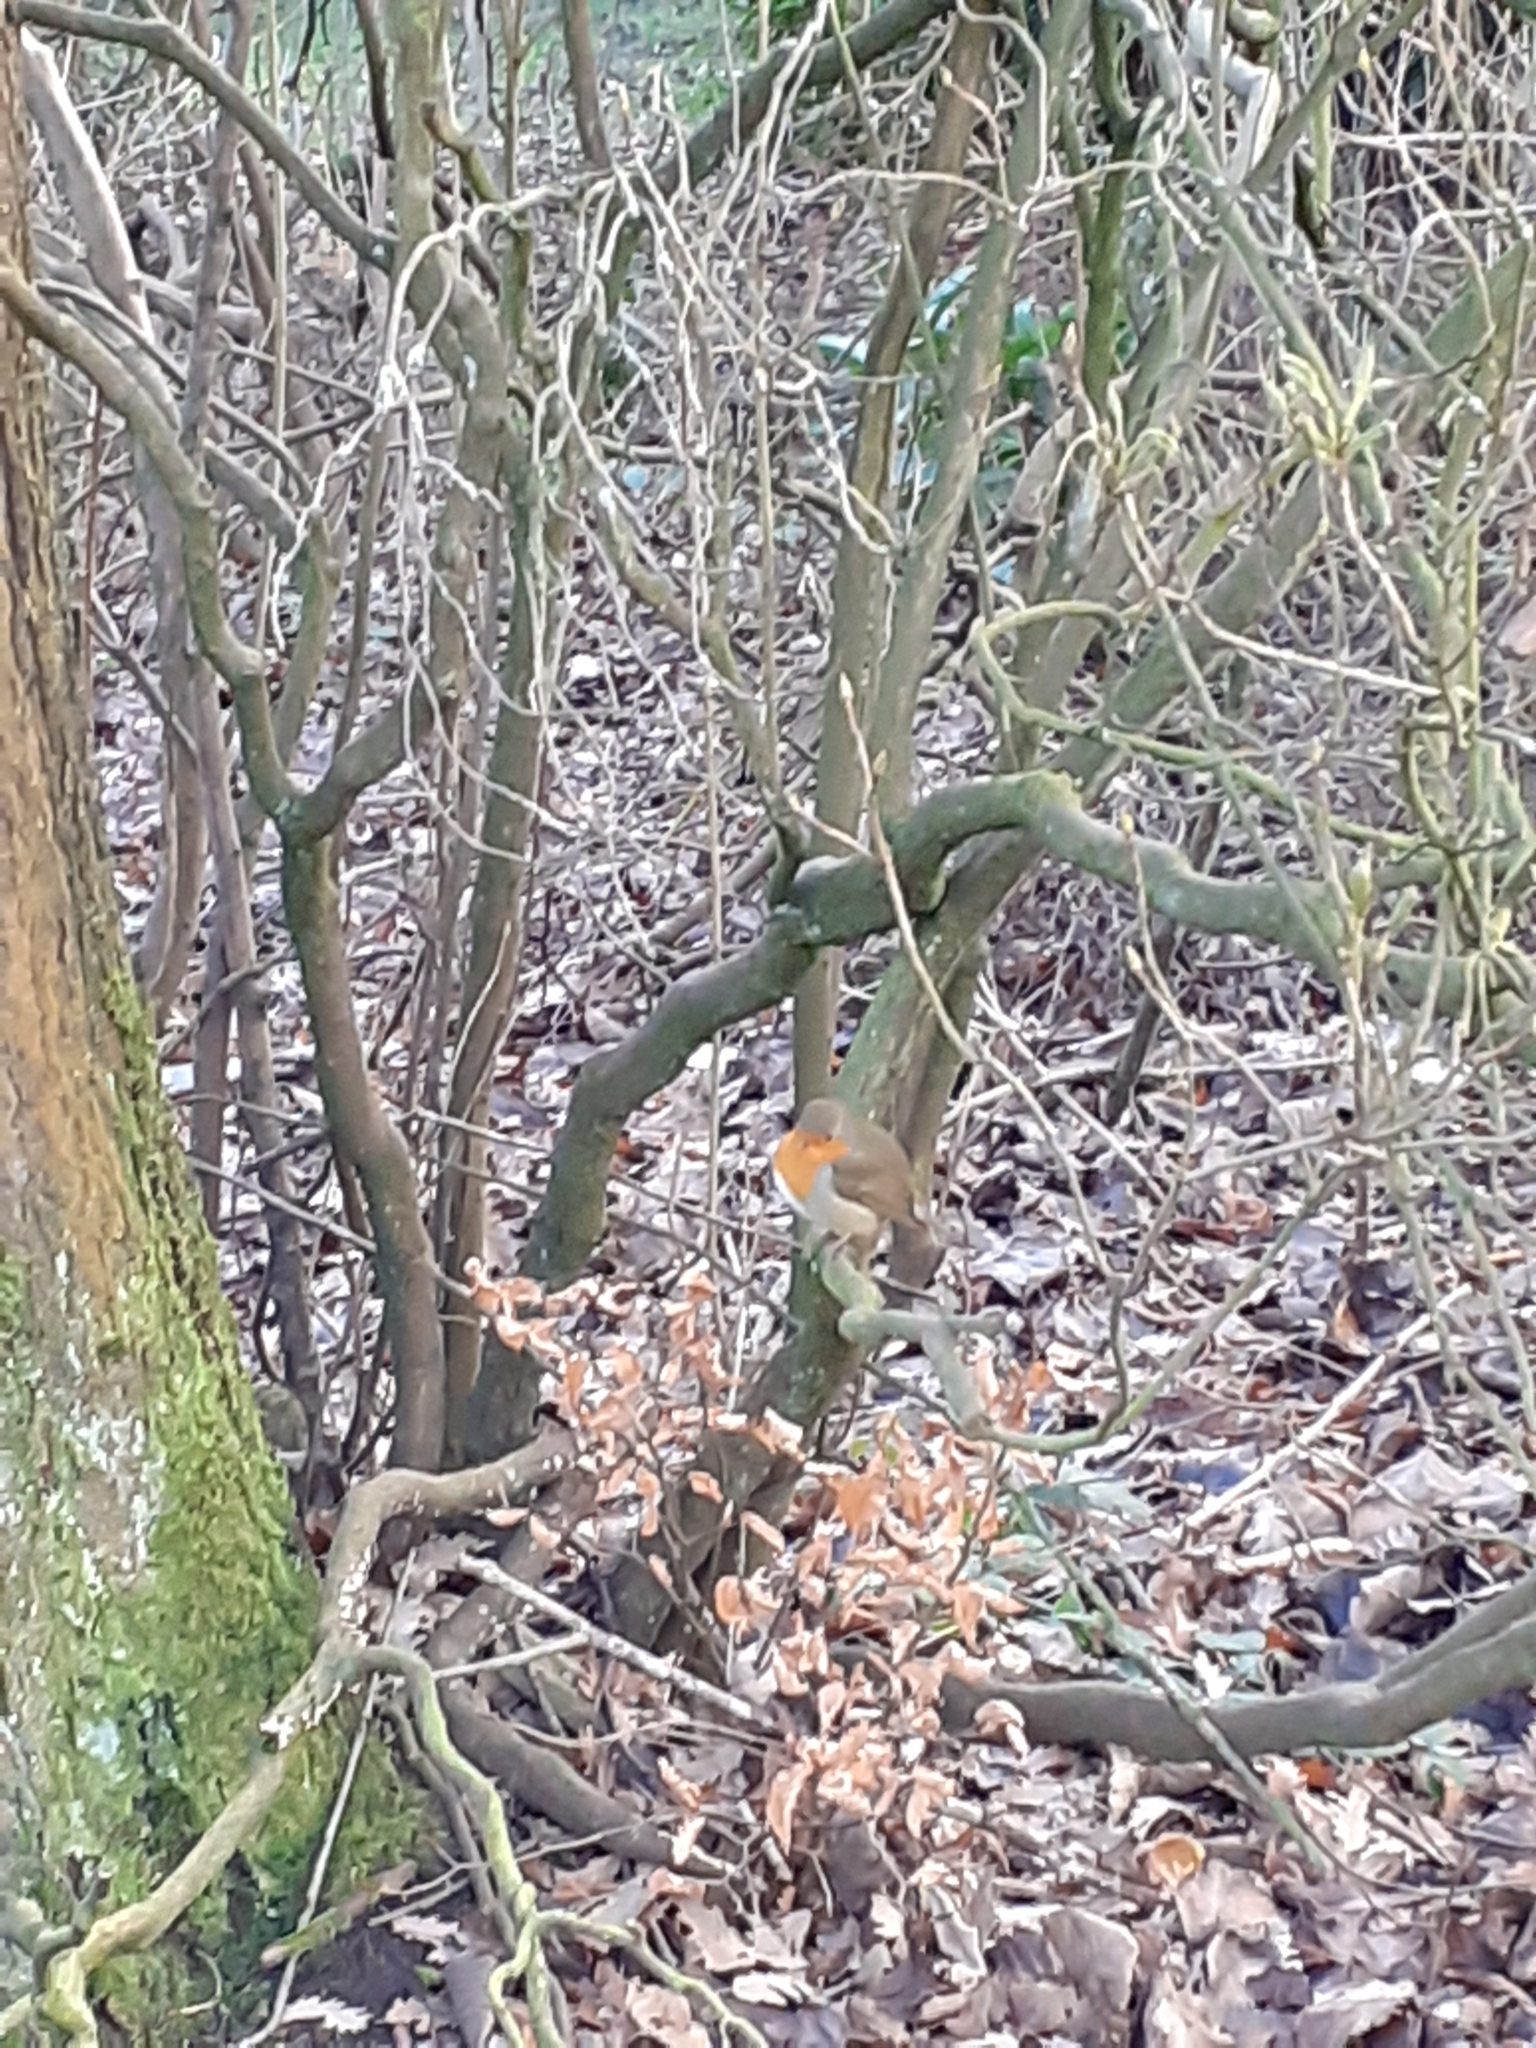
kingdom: Animalia
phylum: Chordata
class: Aves
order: Passeriformes
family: Muscicapidae
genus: Erithacus
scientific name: Erithacus rubecula
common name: European robin
